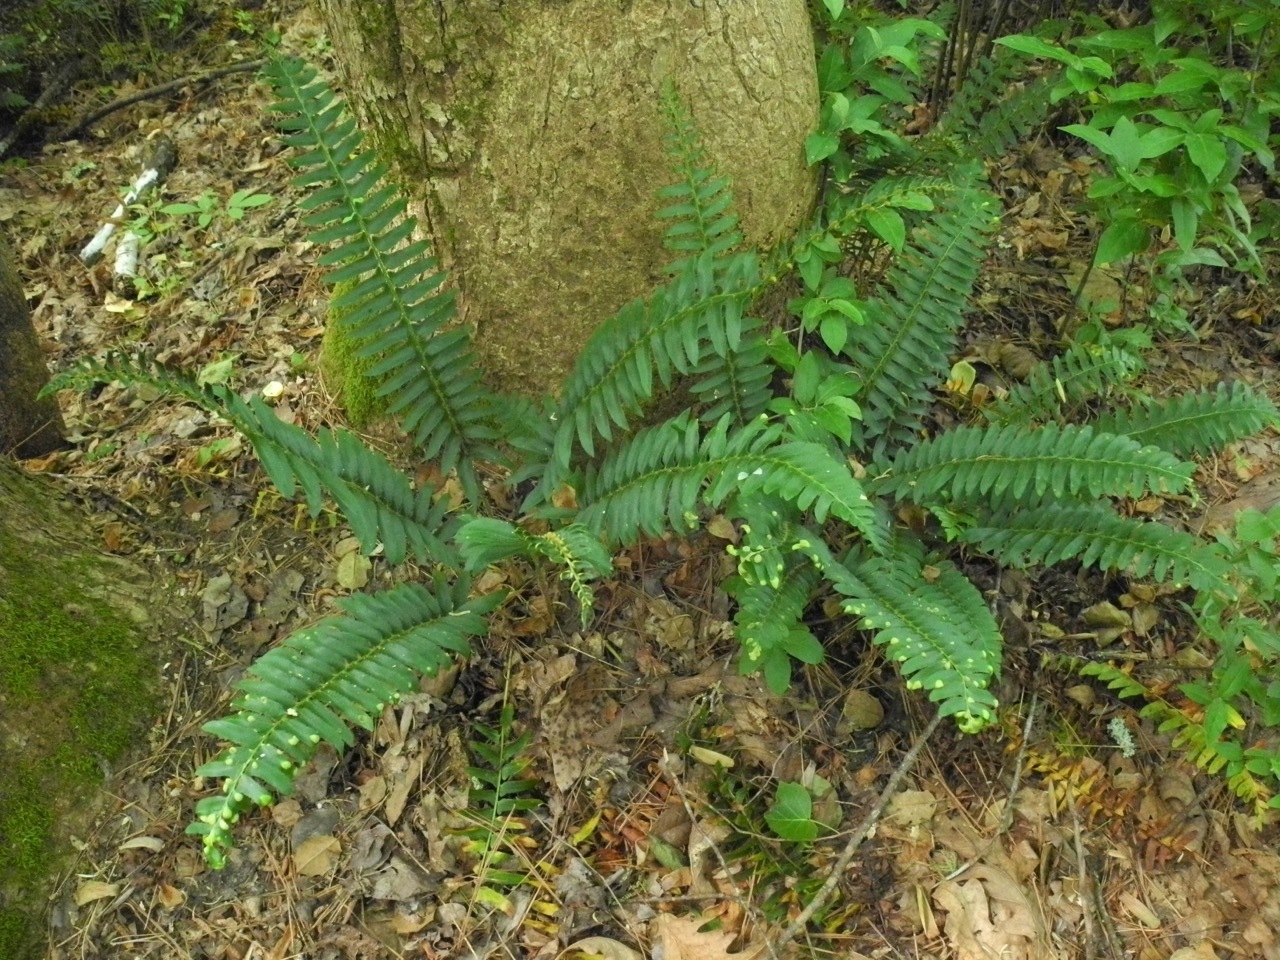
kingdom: Fungi
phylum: Ascomycota
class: Taphrinomycetes
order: Taphrinales
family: Taphrinaceae
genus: Taphrina
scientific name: Taphrina polystichi
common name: Christmas fern leaf curl
